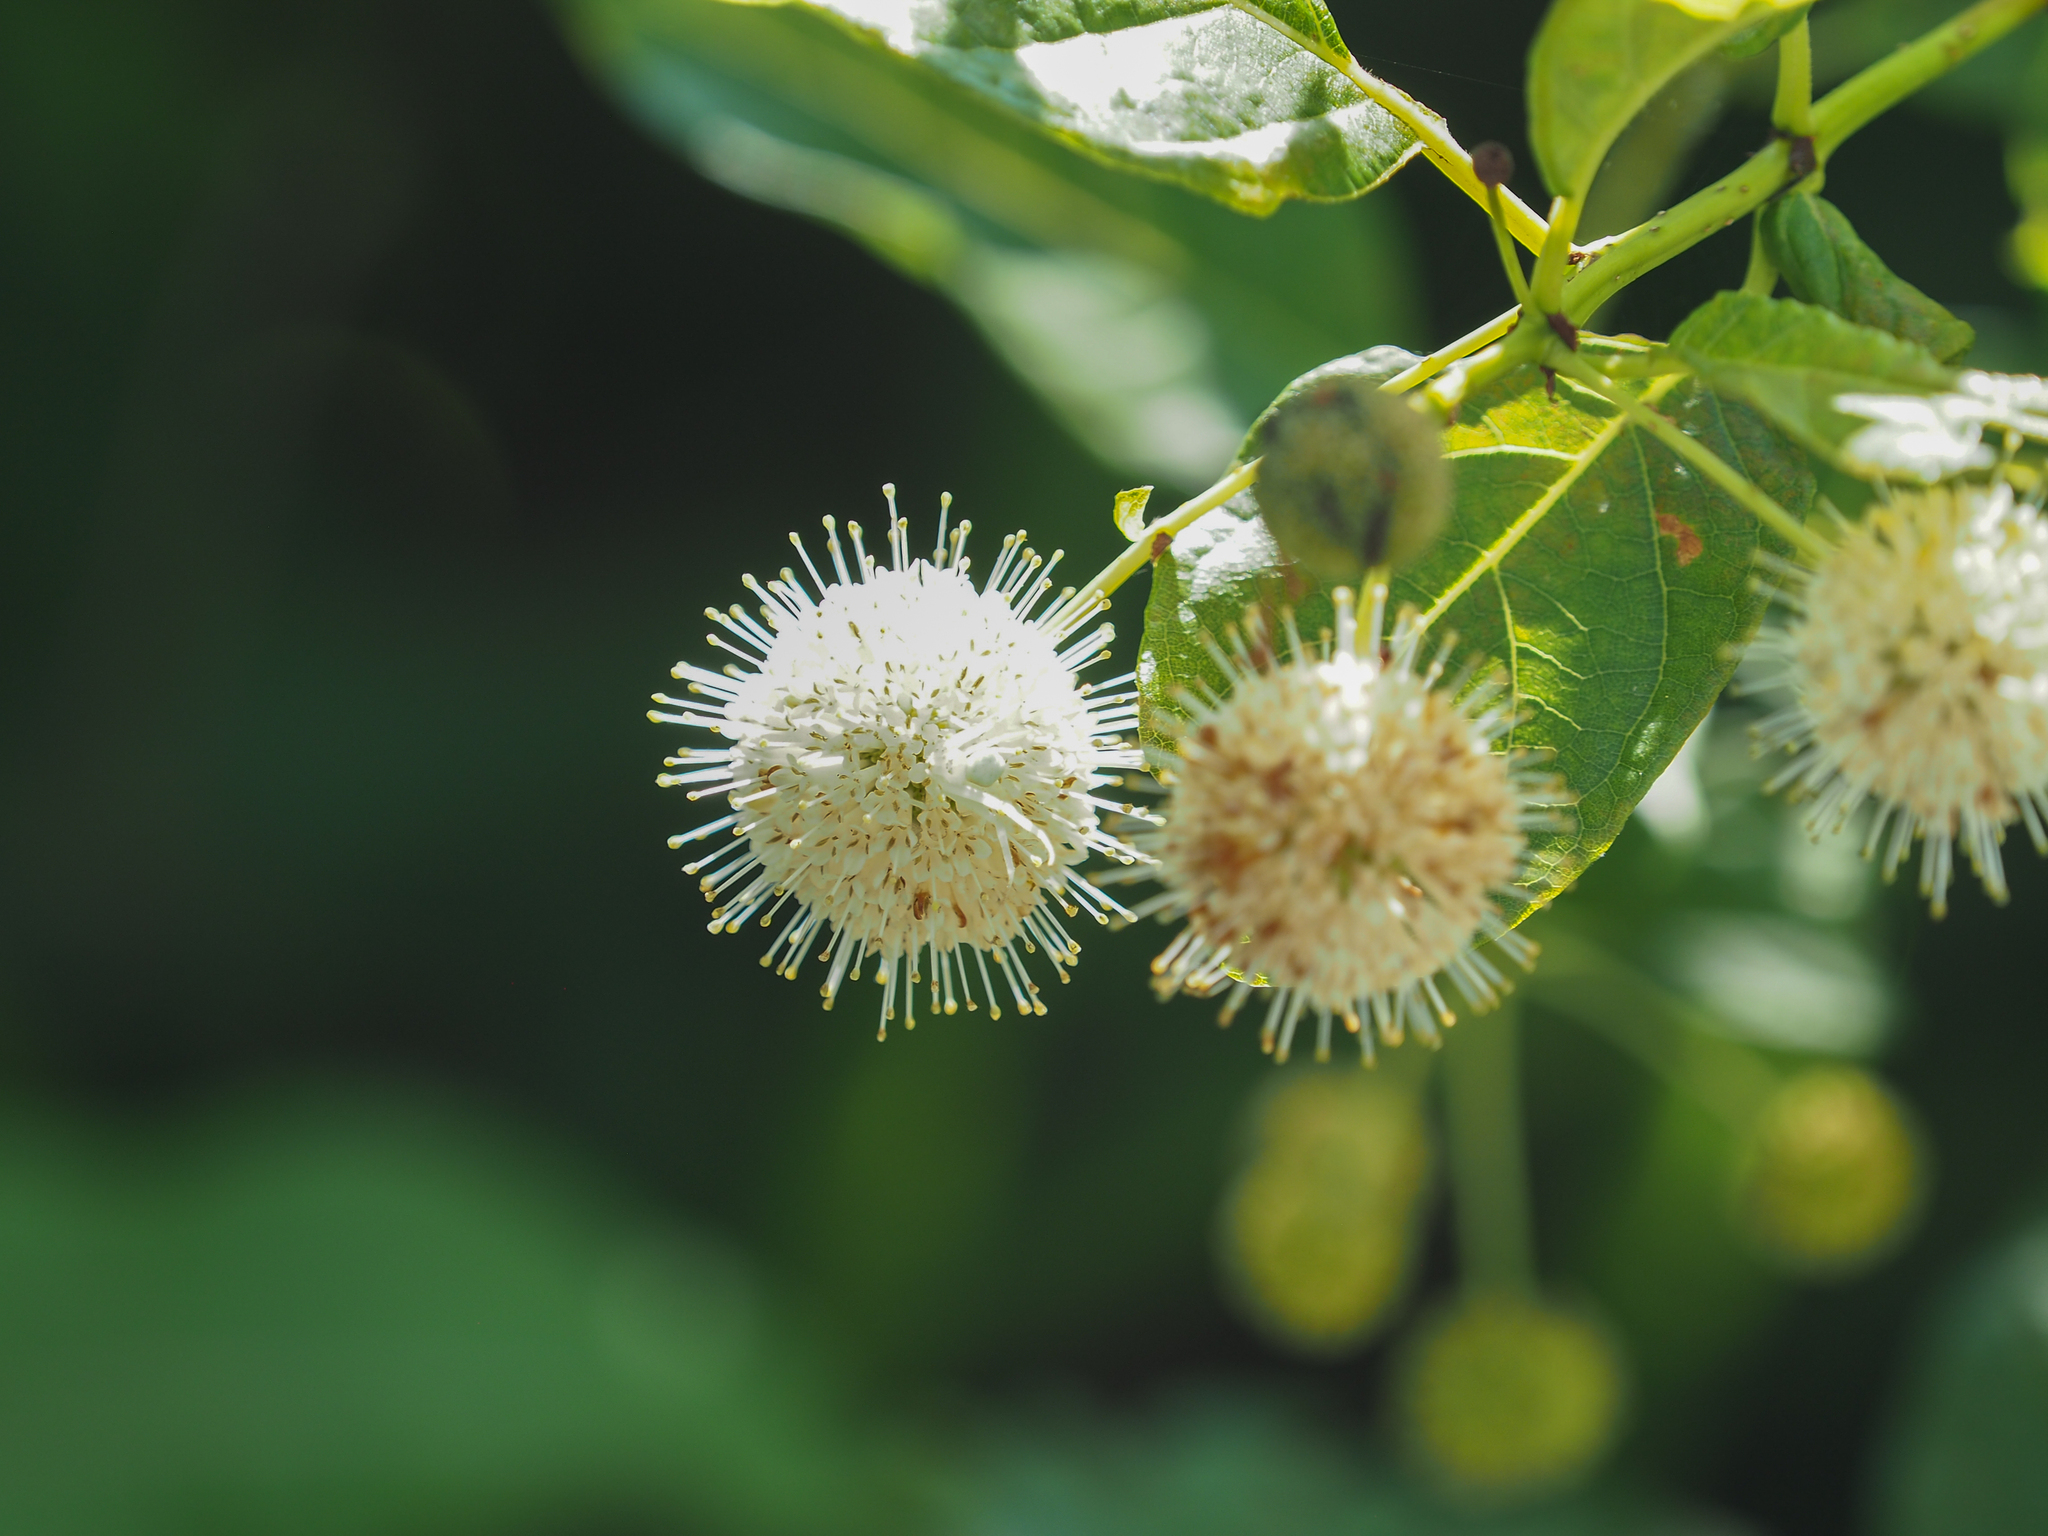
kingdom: Plantae
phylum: Tracheophyta
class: Magnoliopsida
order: Gentianales
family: Rubiaceae
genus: Cephalanthus
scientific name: Cephalanthus occidentalis
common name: Button-willow
